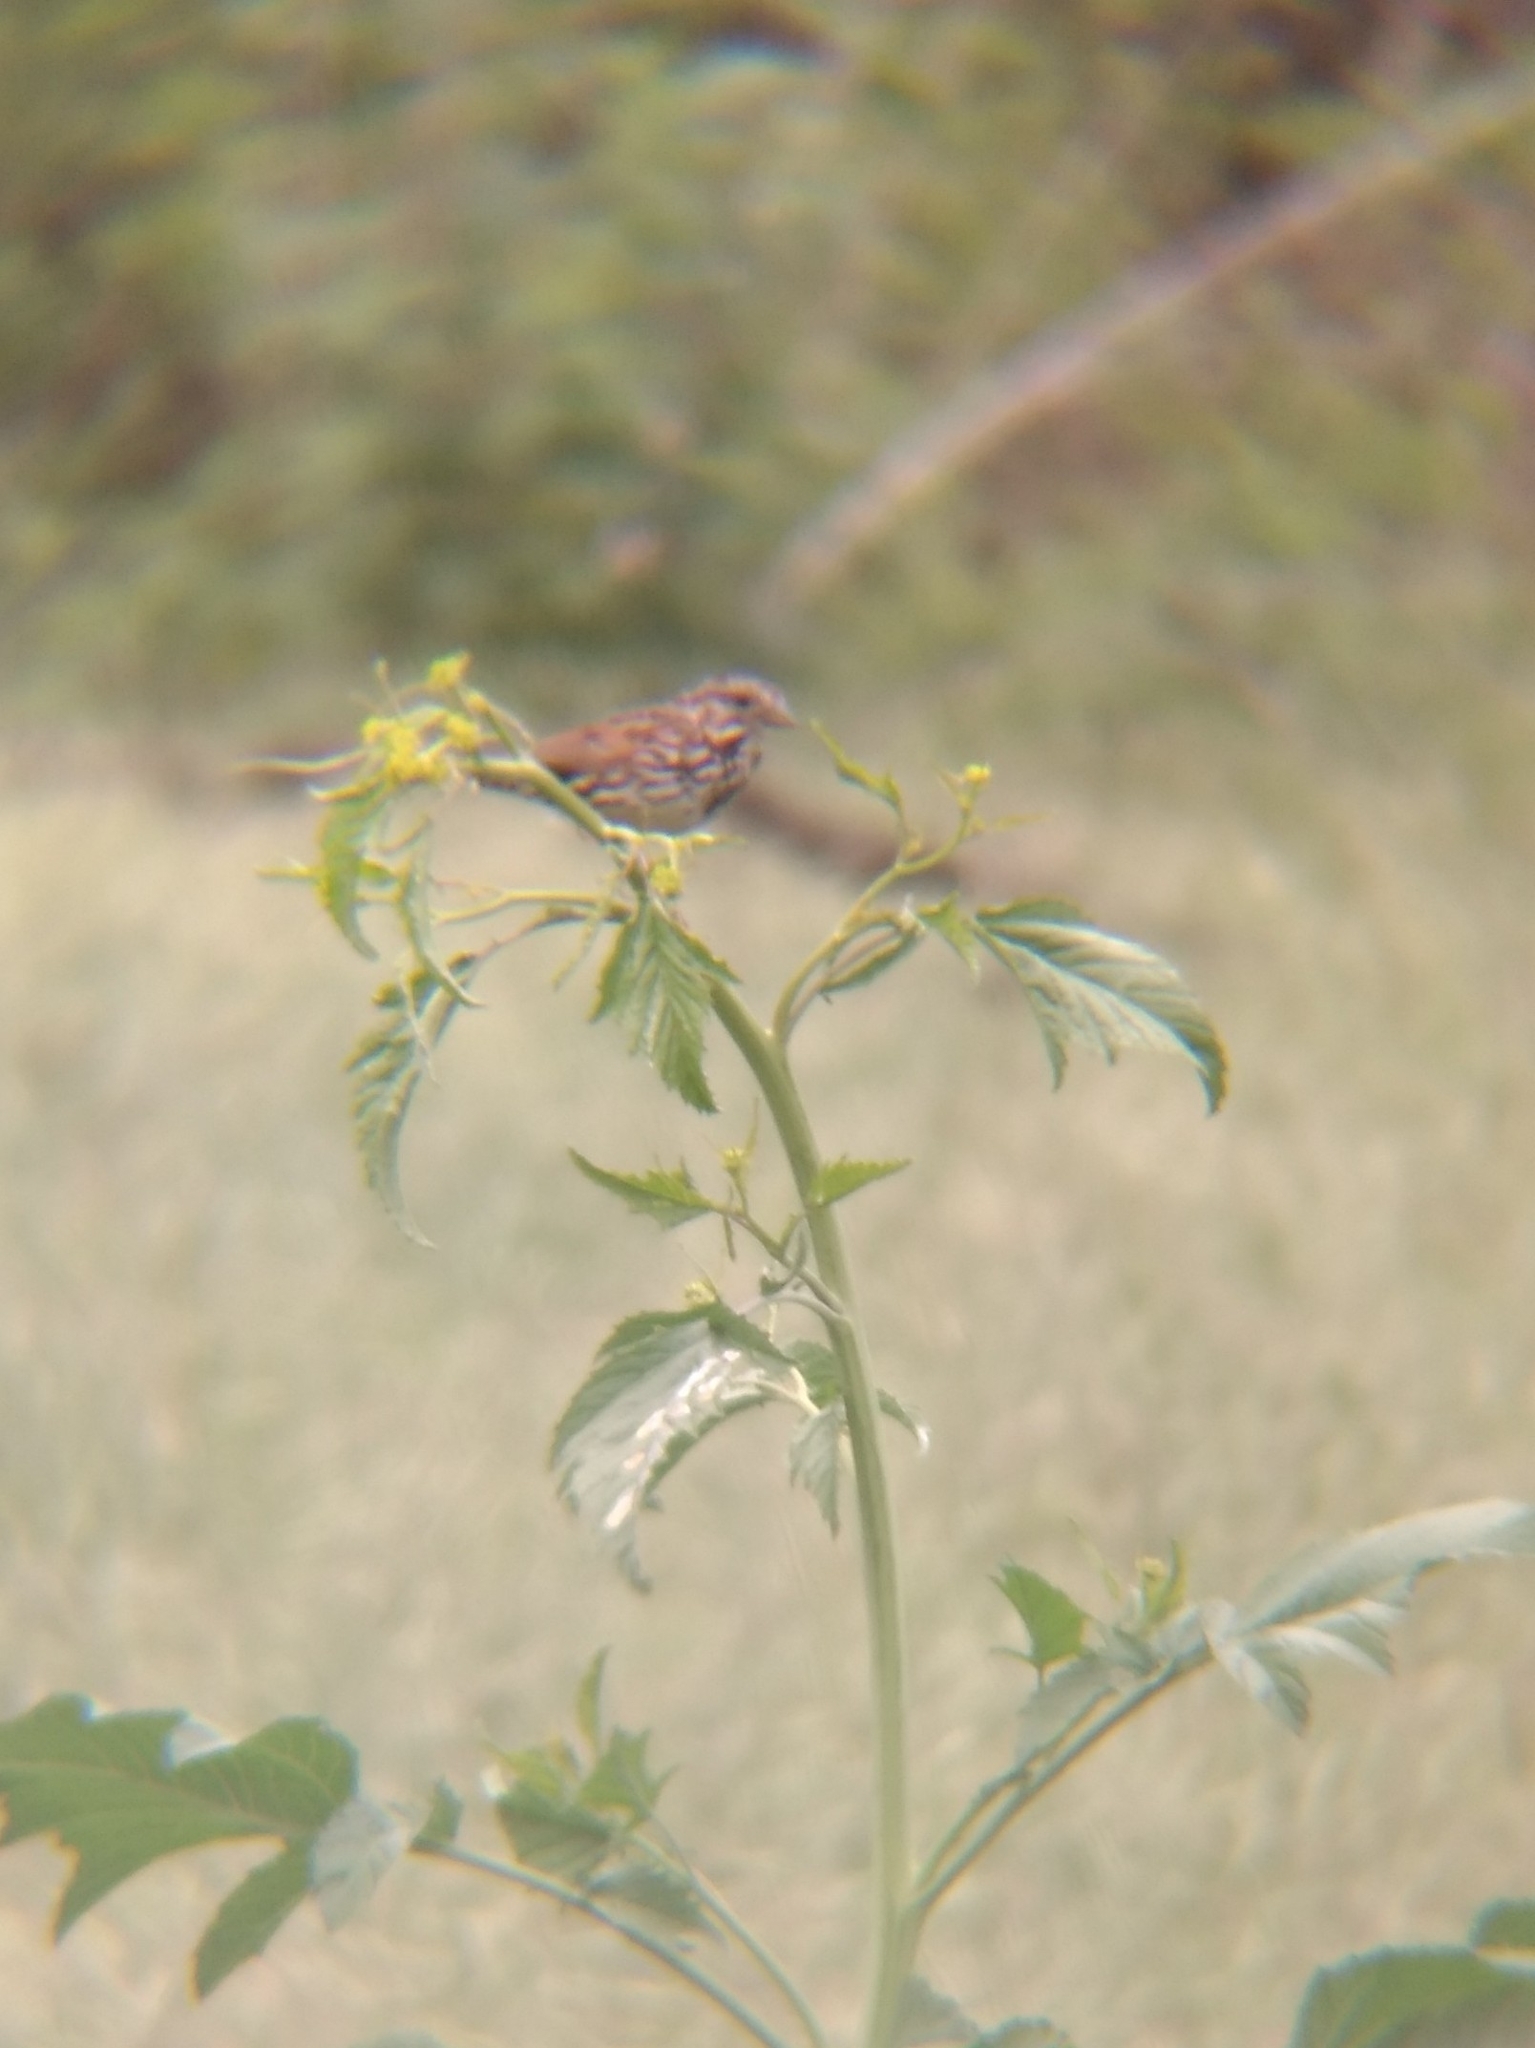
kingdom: Animalia
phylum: Chordata
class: Aves
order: Passeriformes
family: Passerellidae
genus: Melospiza
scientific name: Melospiza melodia
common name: Song sparrow
